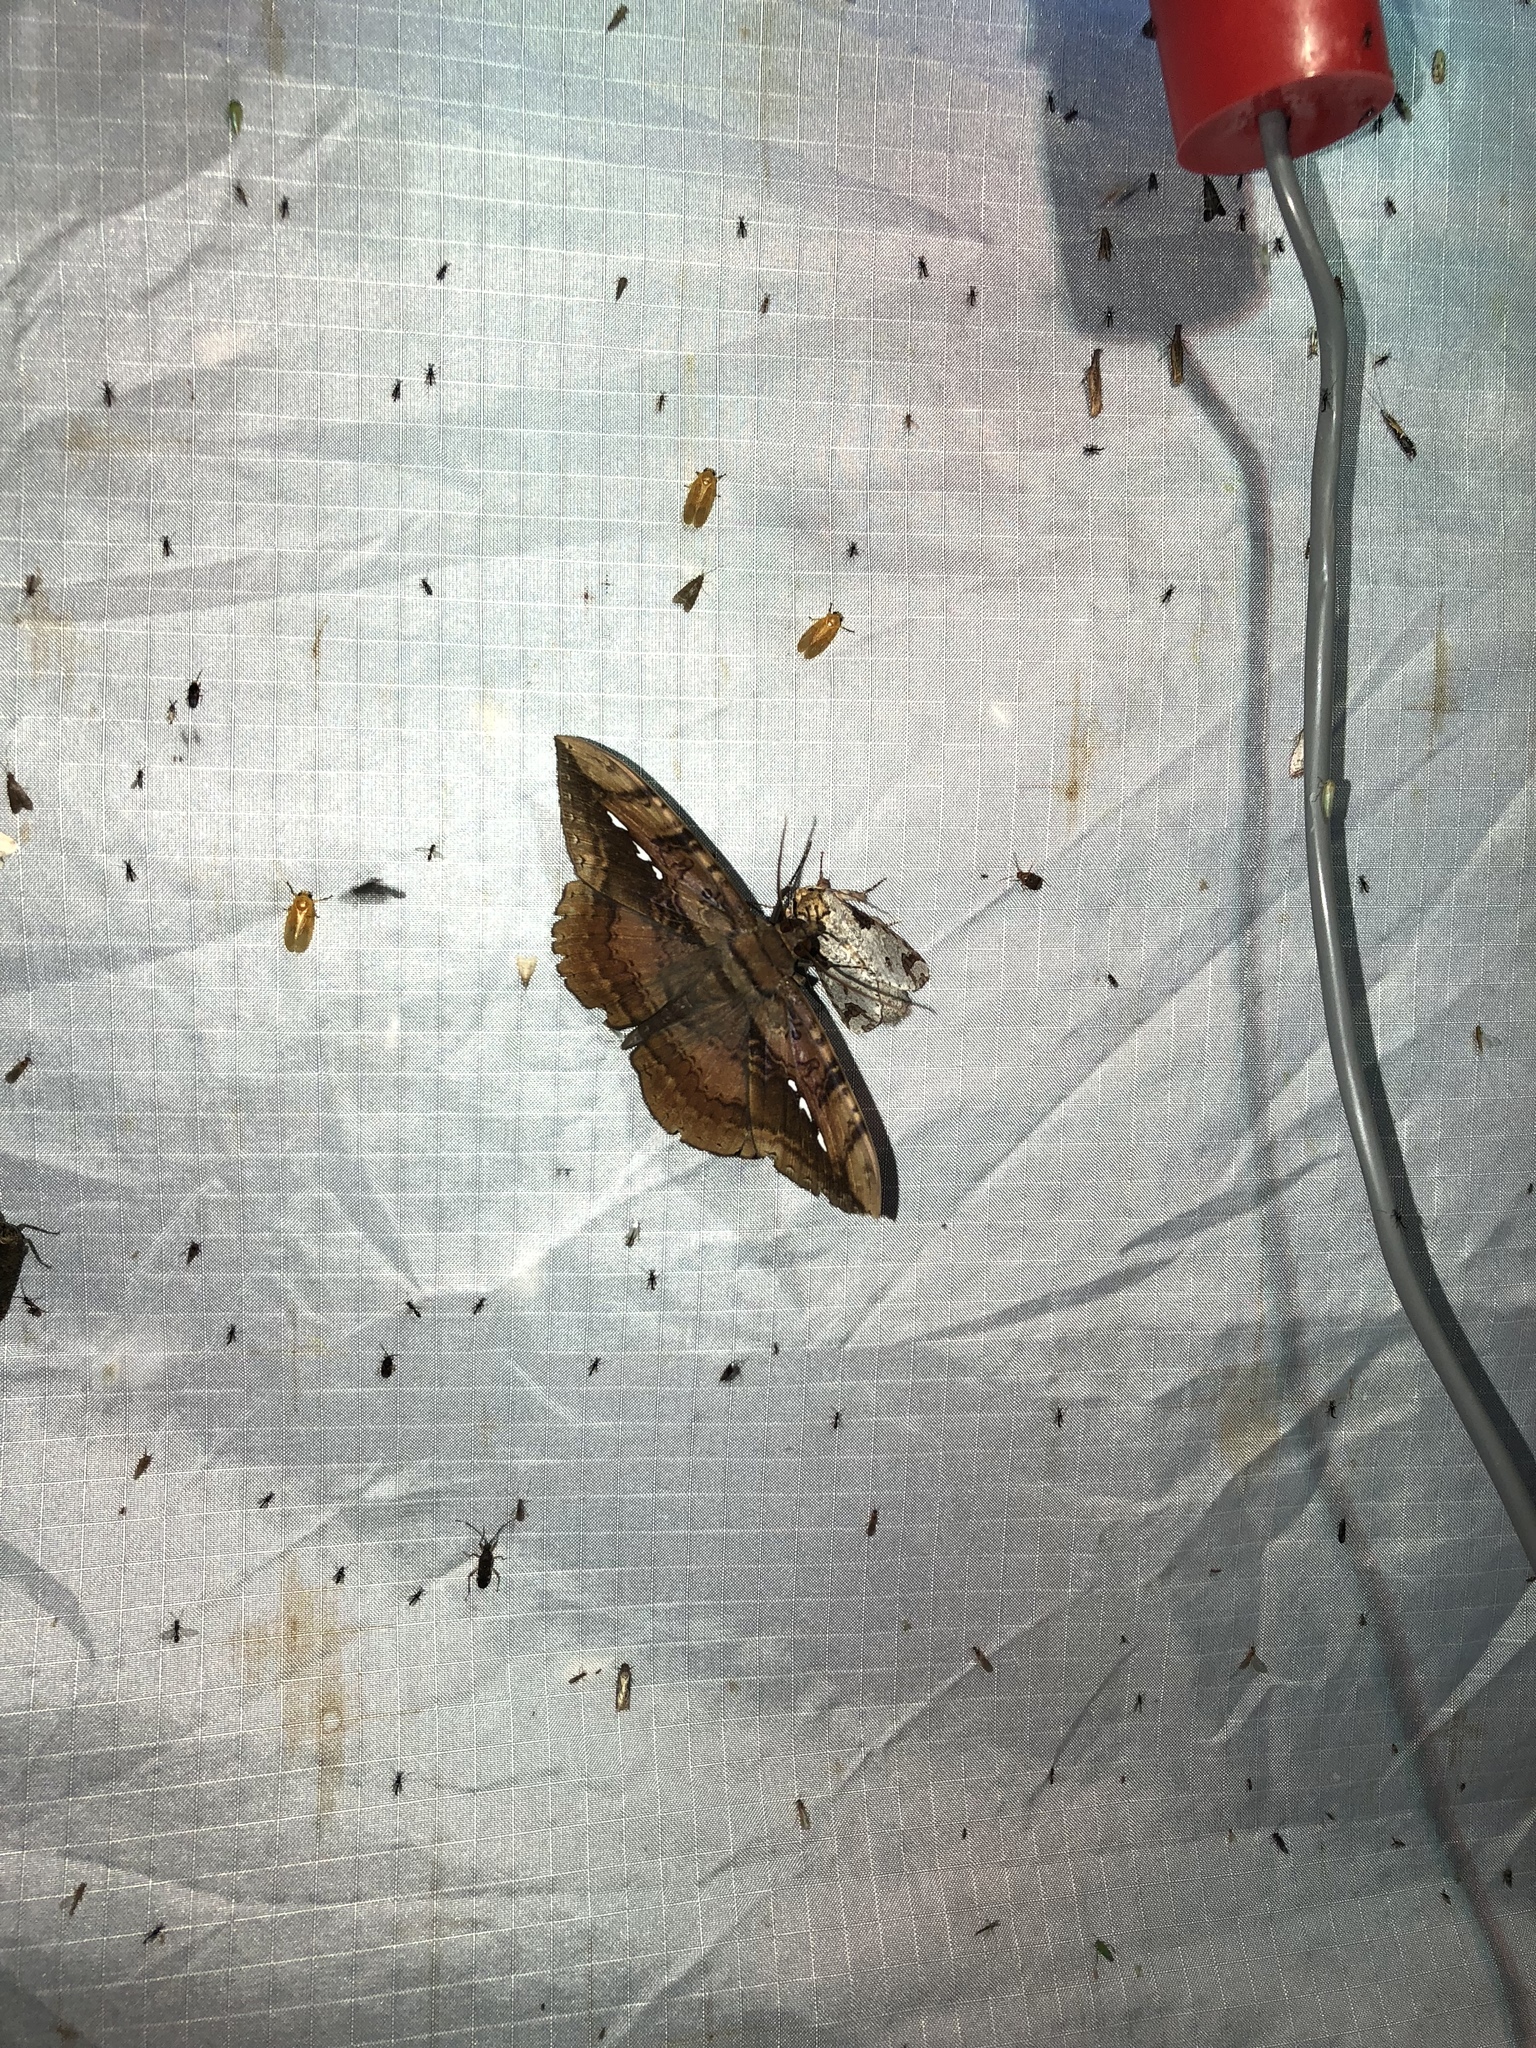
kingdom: Animalia
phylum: Arthropoda
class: Insecta
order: Lepidoptera
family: Erebidae
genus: Hemeroblemma
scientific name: Hemeroblemma acron
